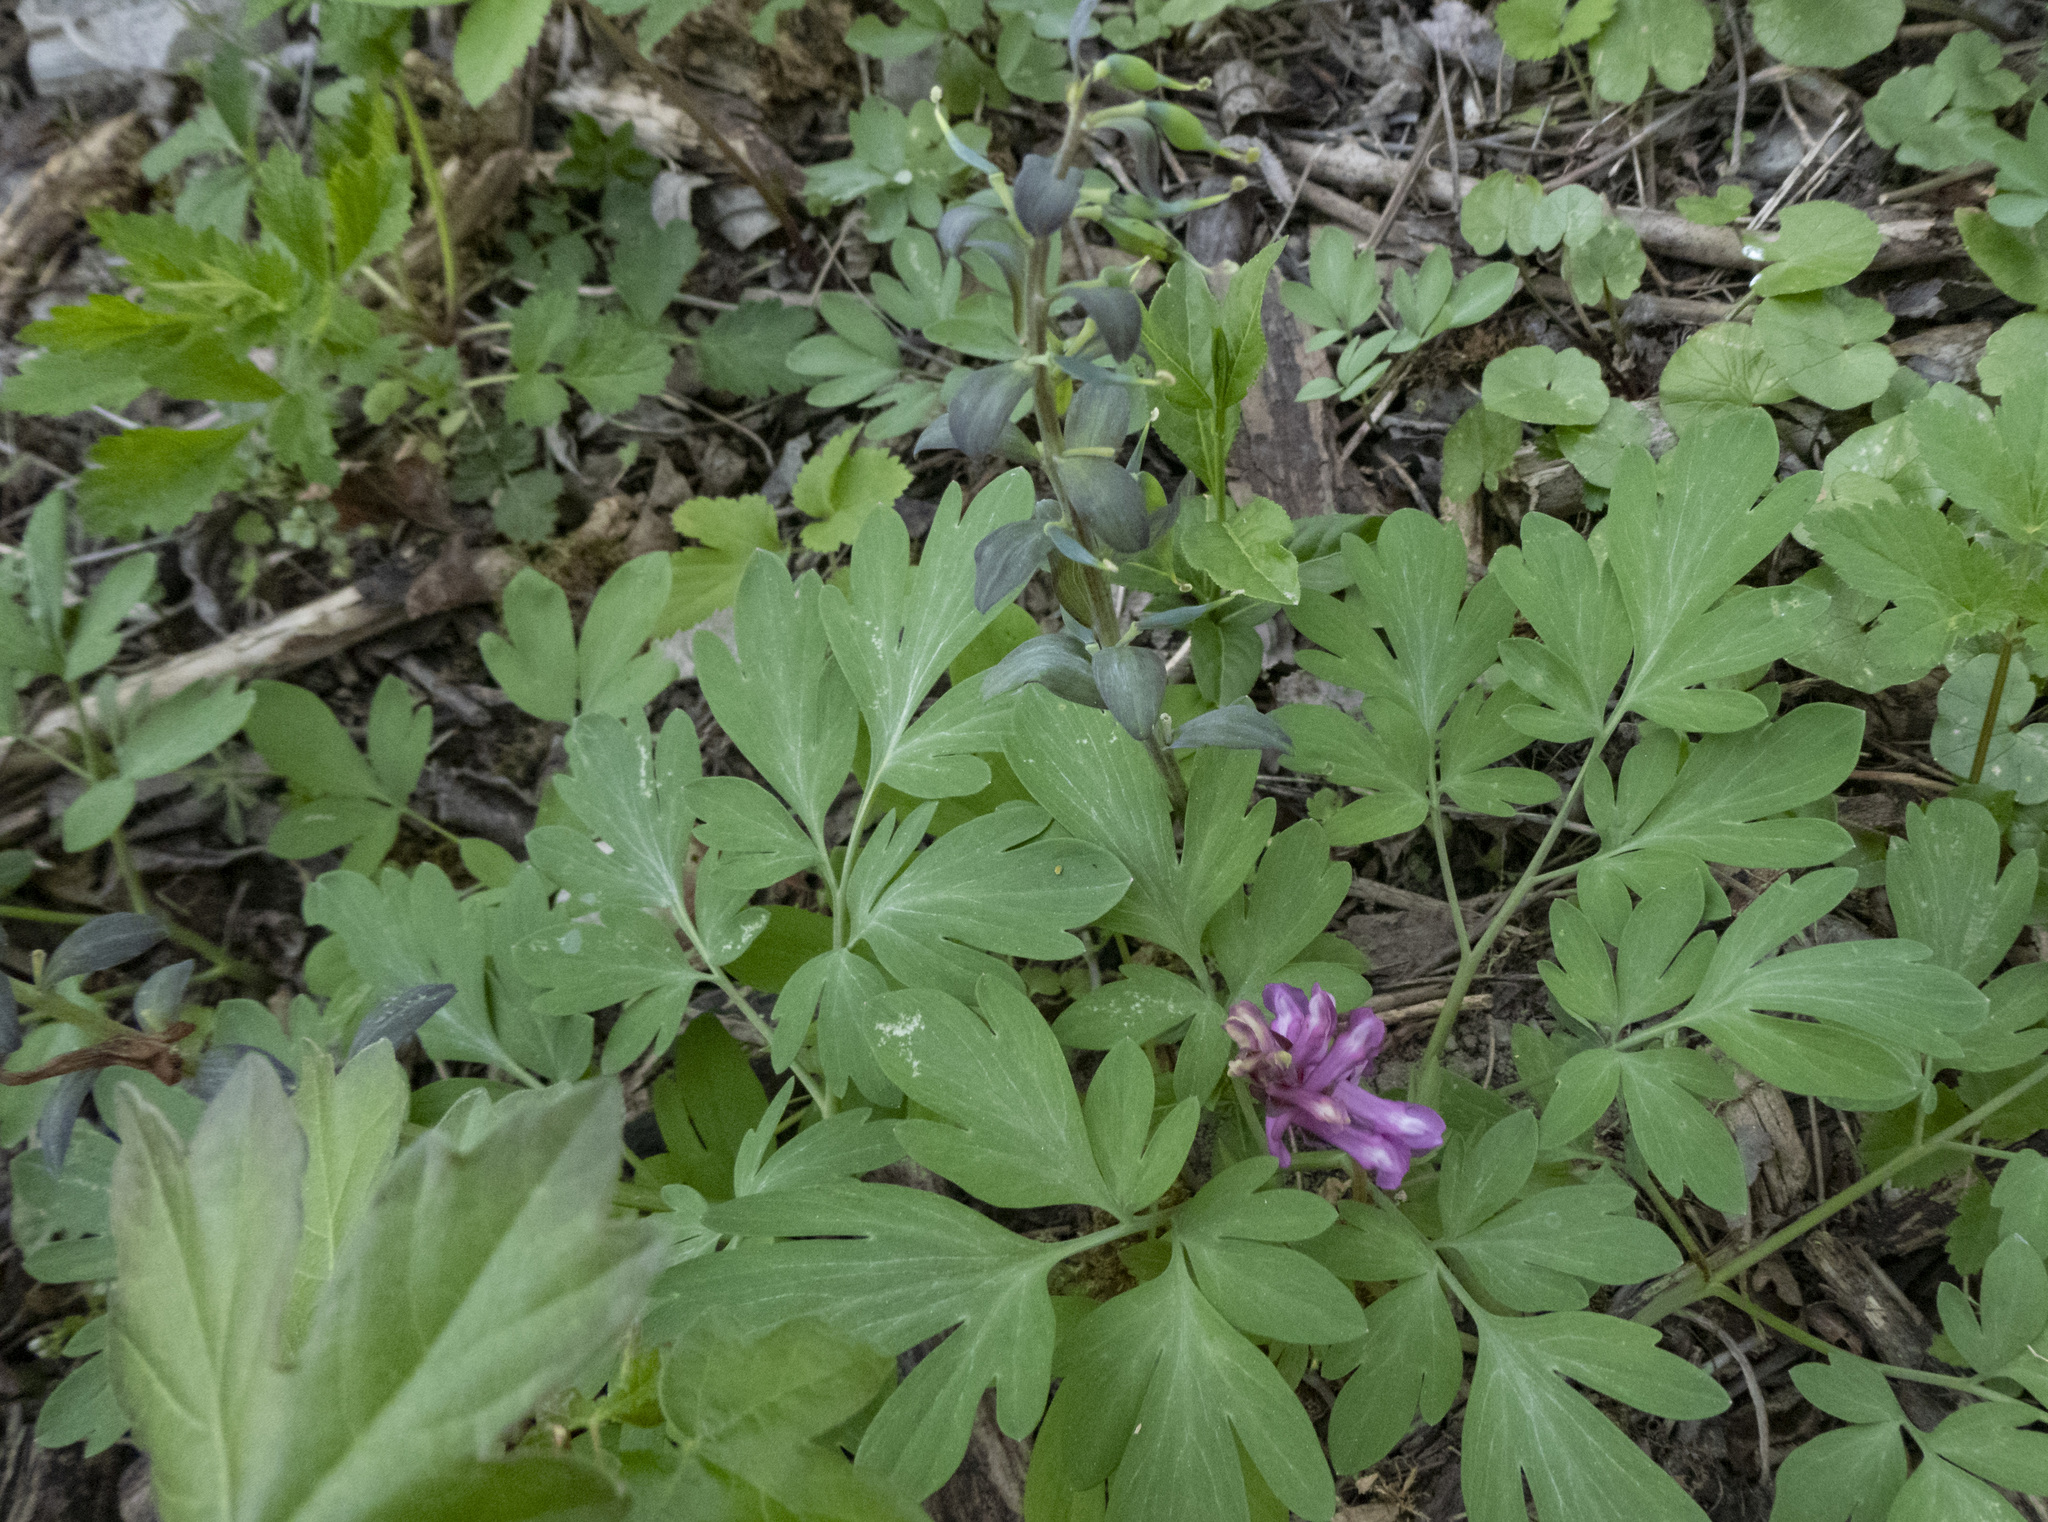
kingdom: Plantae
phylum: Tracheophyta
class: Magnoliopsida
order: Ranunculales
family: Papaveraceae
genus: Corydalis
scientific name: Corydalis cava
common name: Hollowroot
